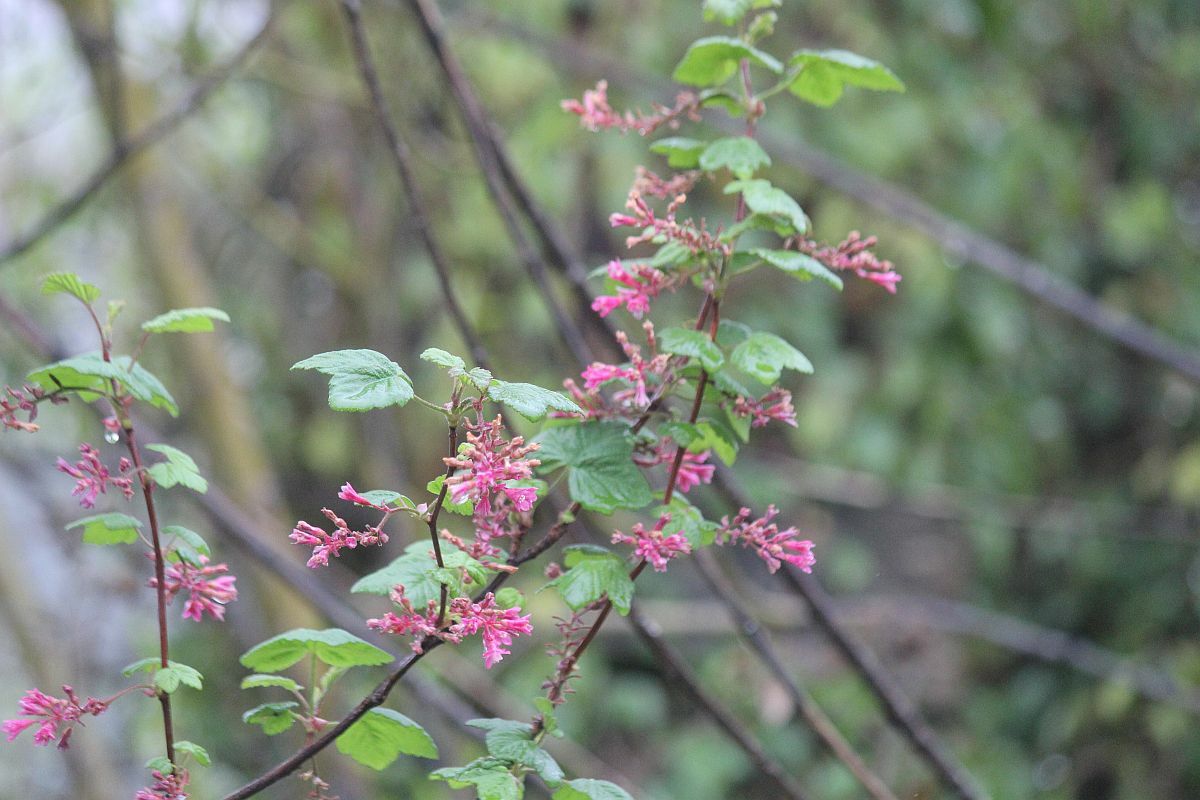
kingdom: Plantae
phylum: Tracheophyta
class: Magnoliopsida
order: Saxifragales
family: Grossulariaceae
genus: Ribes
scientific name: Ribes sanguineum
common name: Flowering currant
